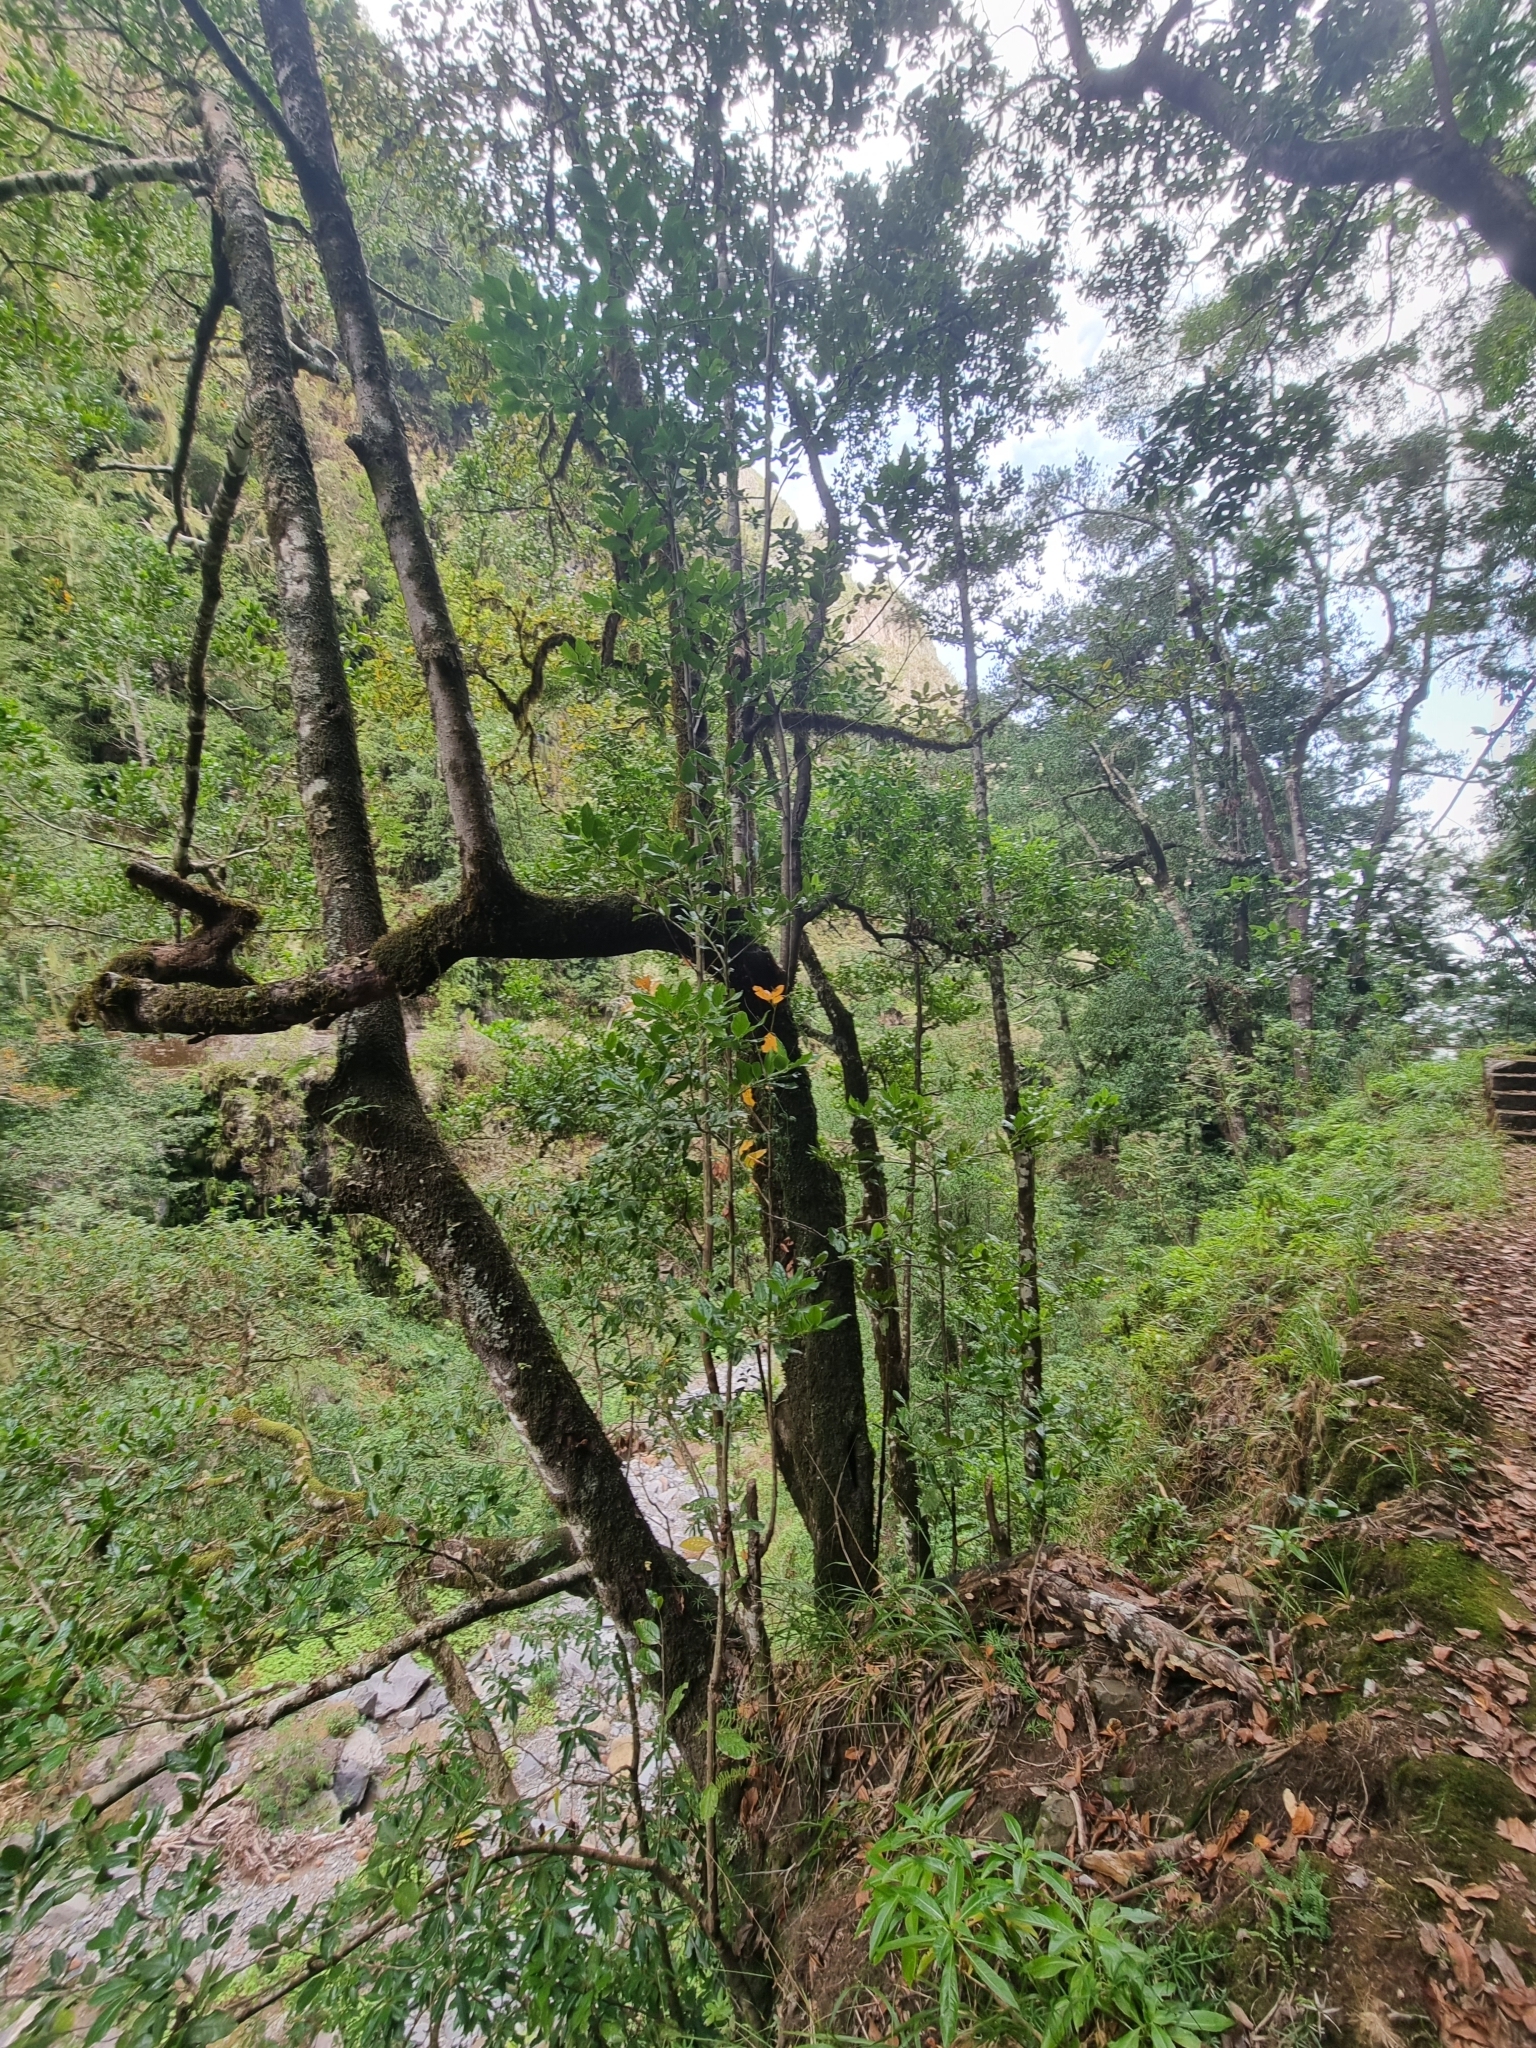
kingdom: Plantae
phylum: Tracheophyta
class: Magnoliopsida
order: Laurales
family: Lauraceae
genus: Mespilodaphne
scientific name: Mespilodaphne foetens
